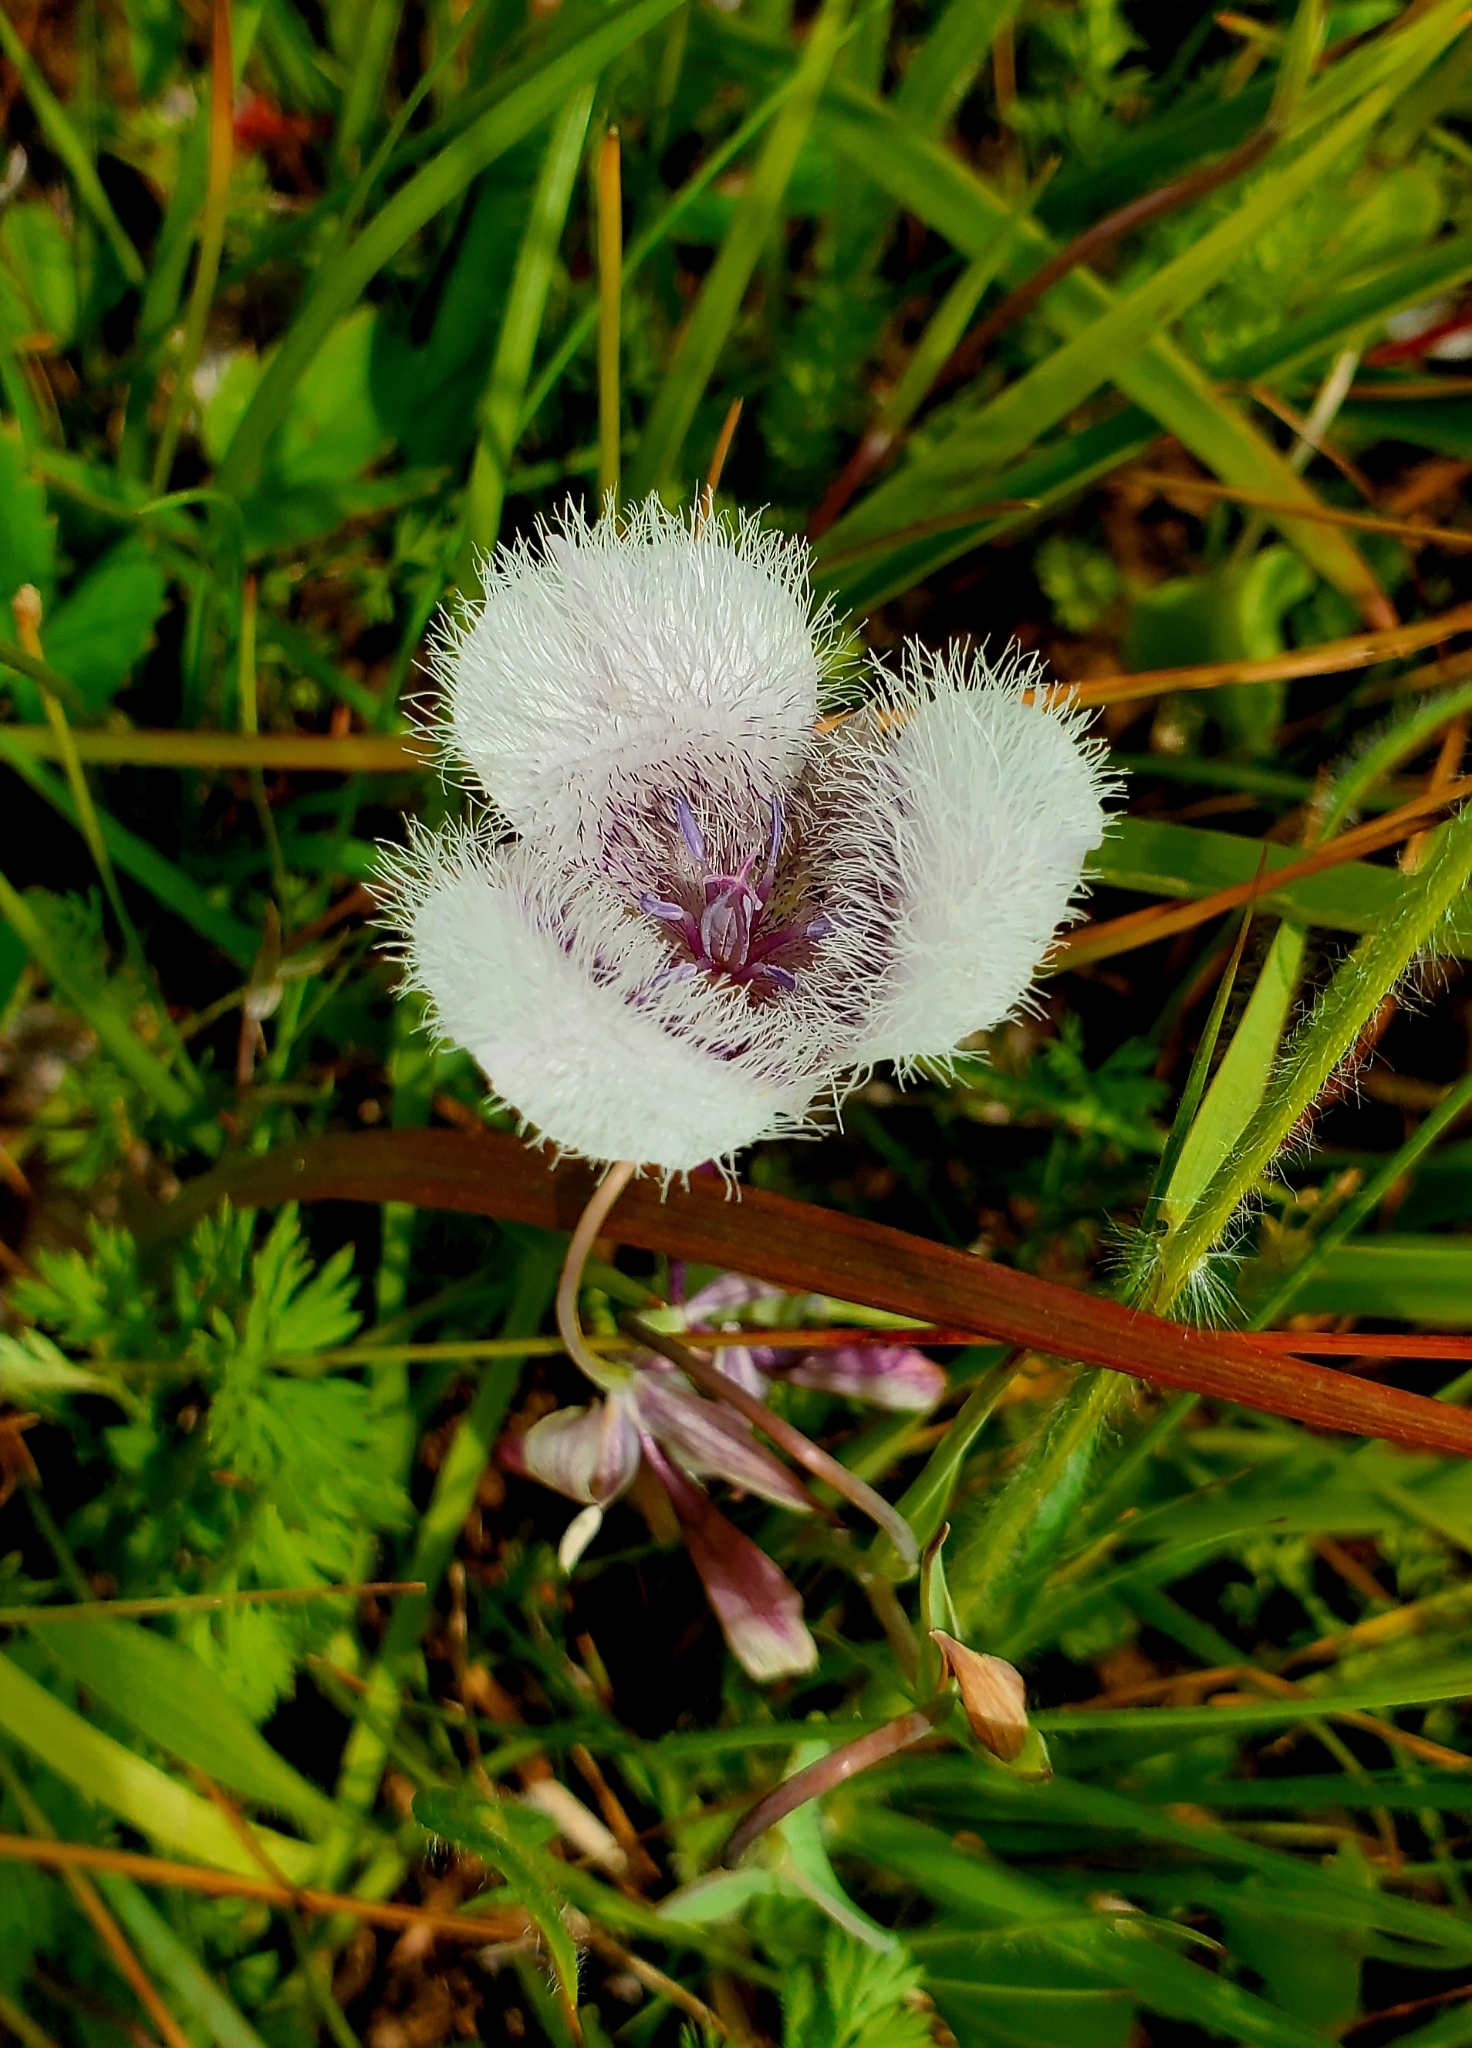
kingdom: Plantae
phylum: Tracheophyta
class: Liliopsida
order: Liliales
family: Liliaceae
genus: Calochortus
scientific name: Calochortus tolmiei
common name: Pussy-ears
